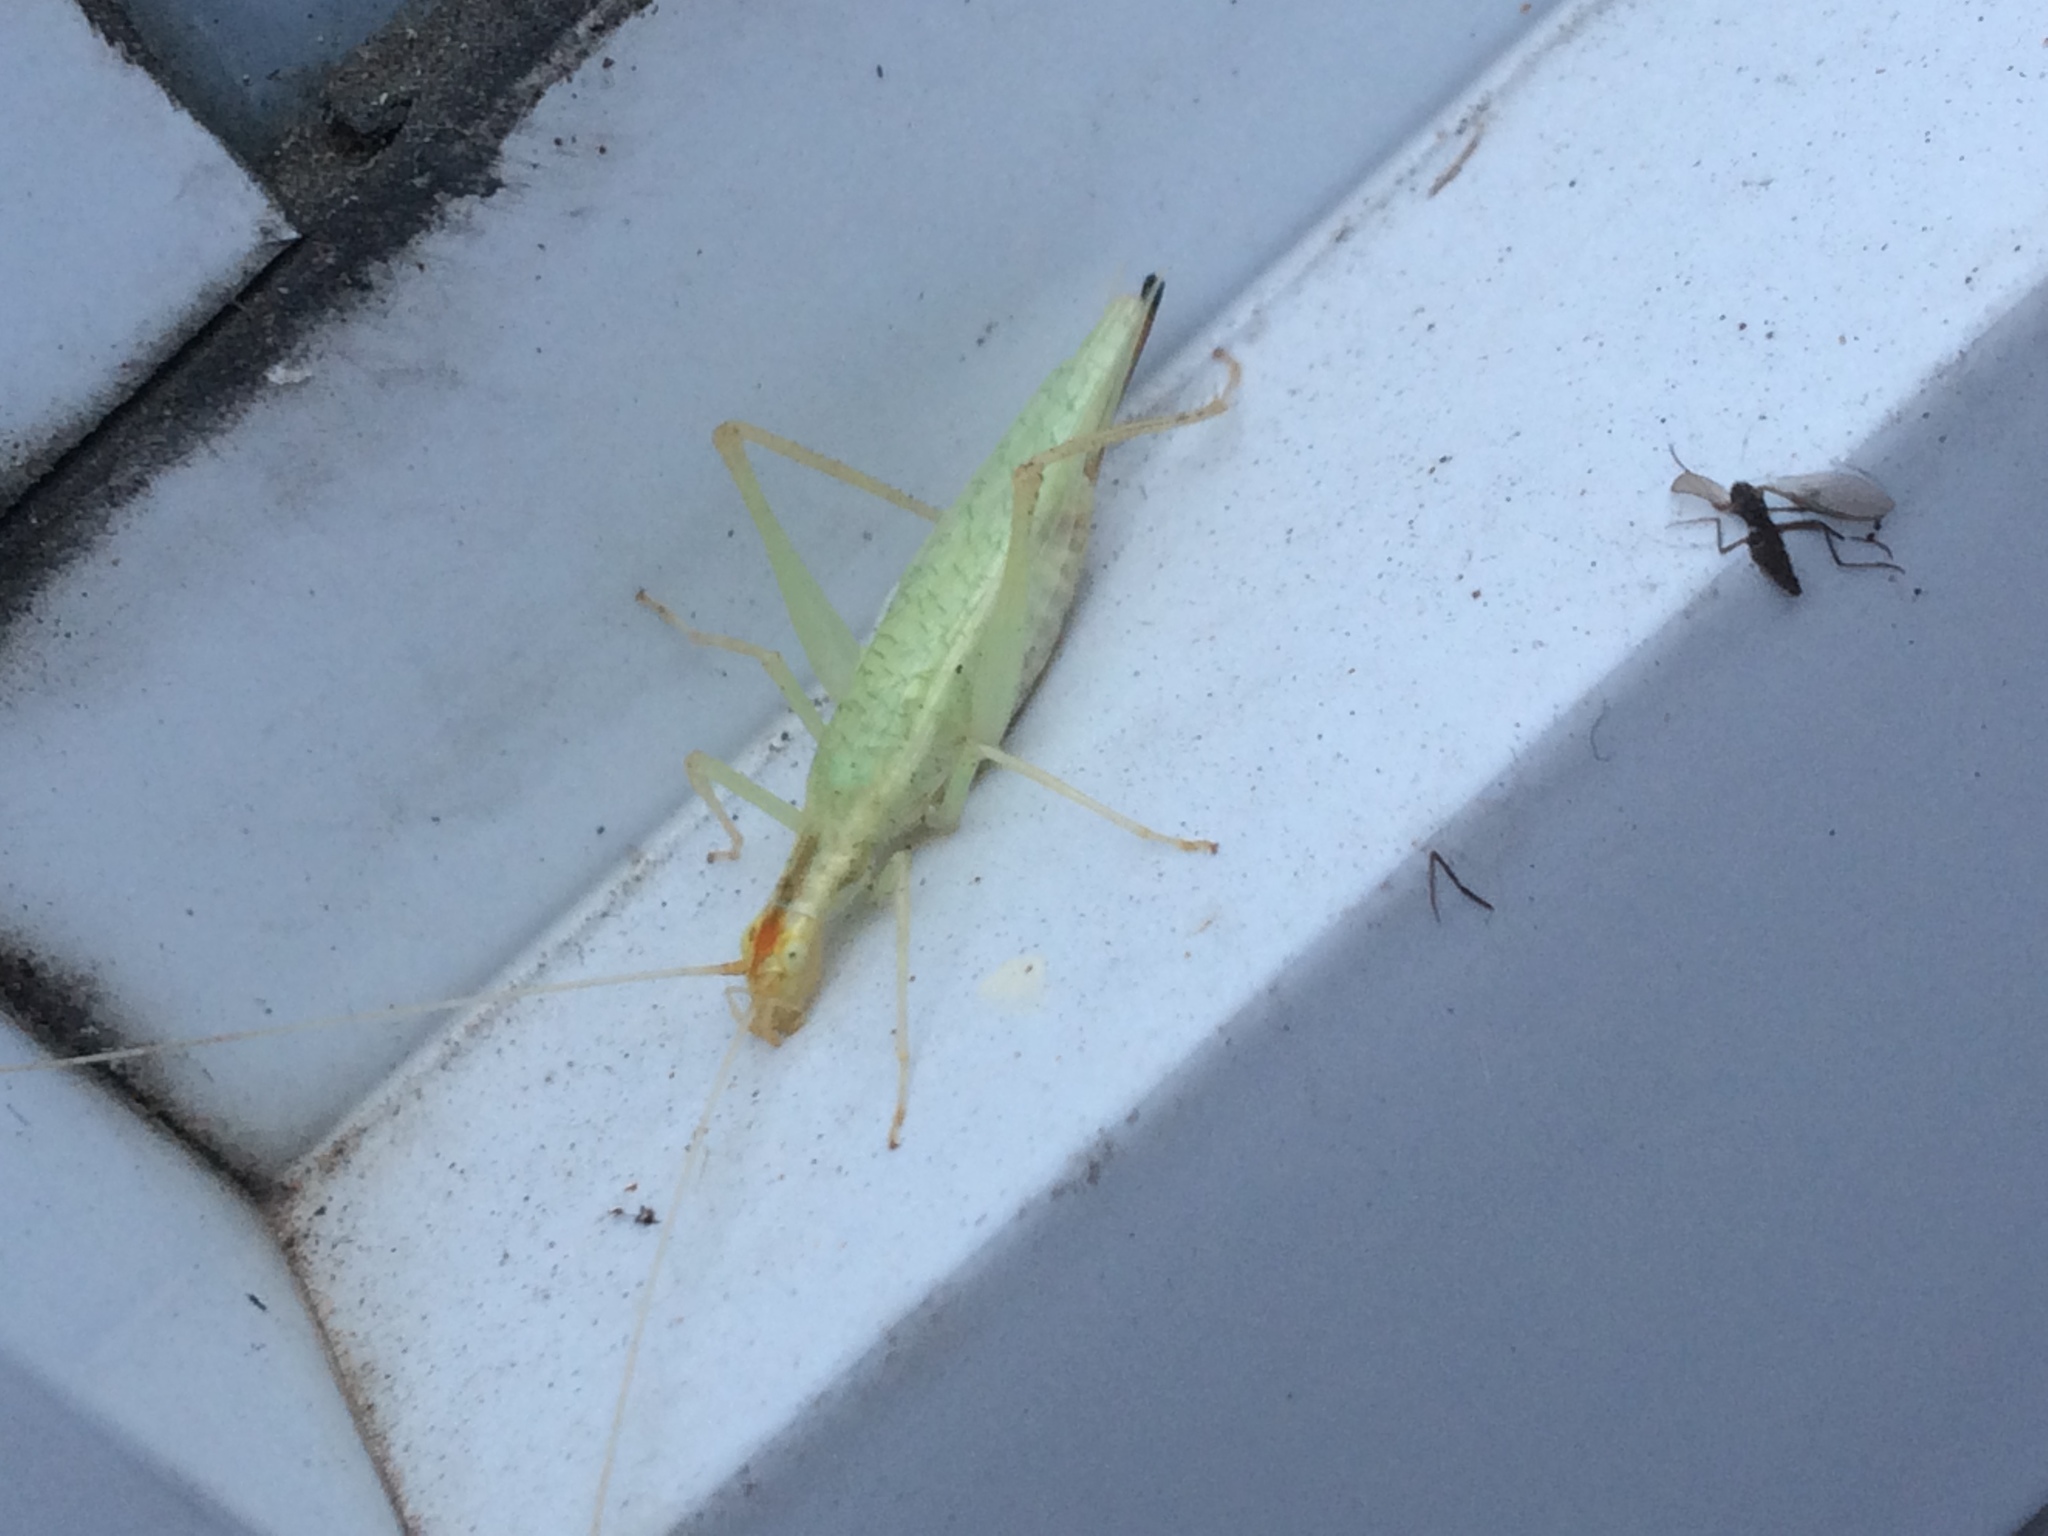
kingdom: Animalia
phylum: Arthropoda
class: Insecta
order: Orthoptera
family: Gryllidae
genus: Oecanthus
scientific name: Oecanthus niveus
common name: Narrow-winged tree cricket
